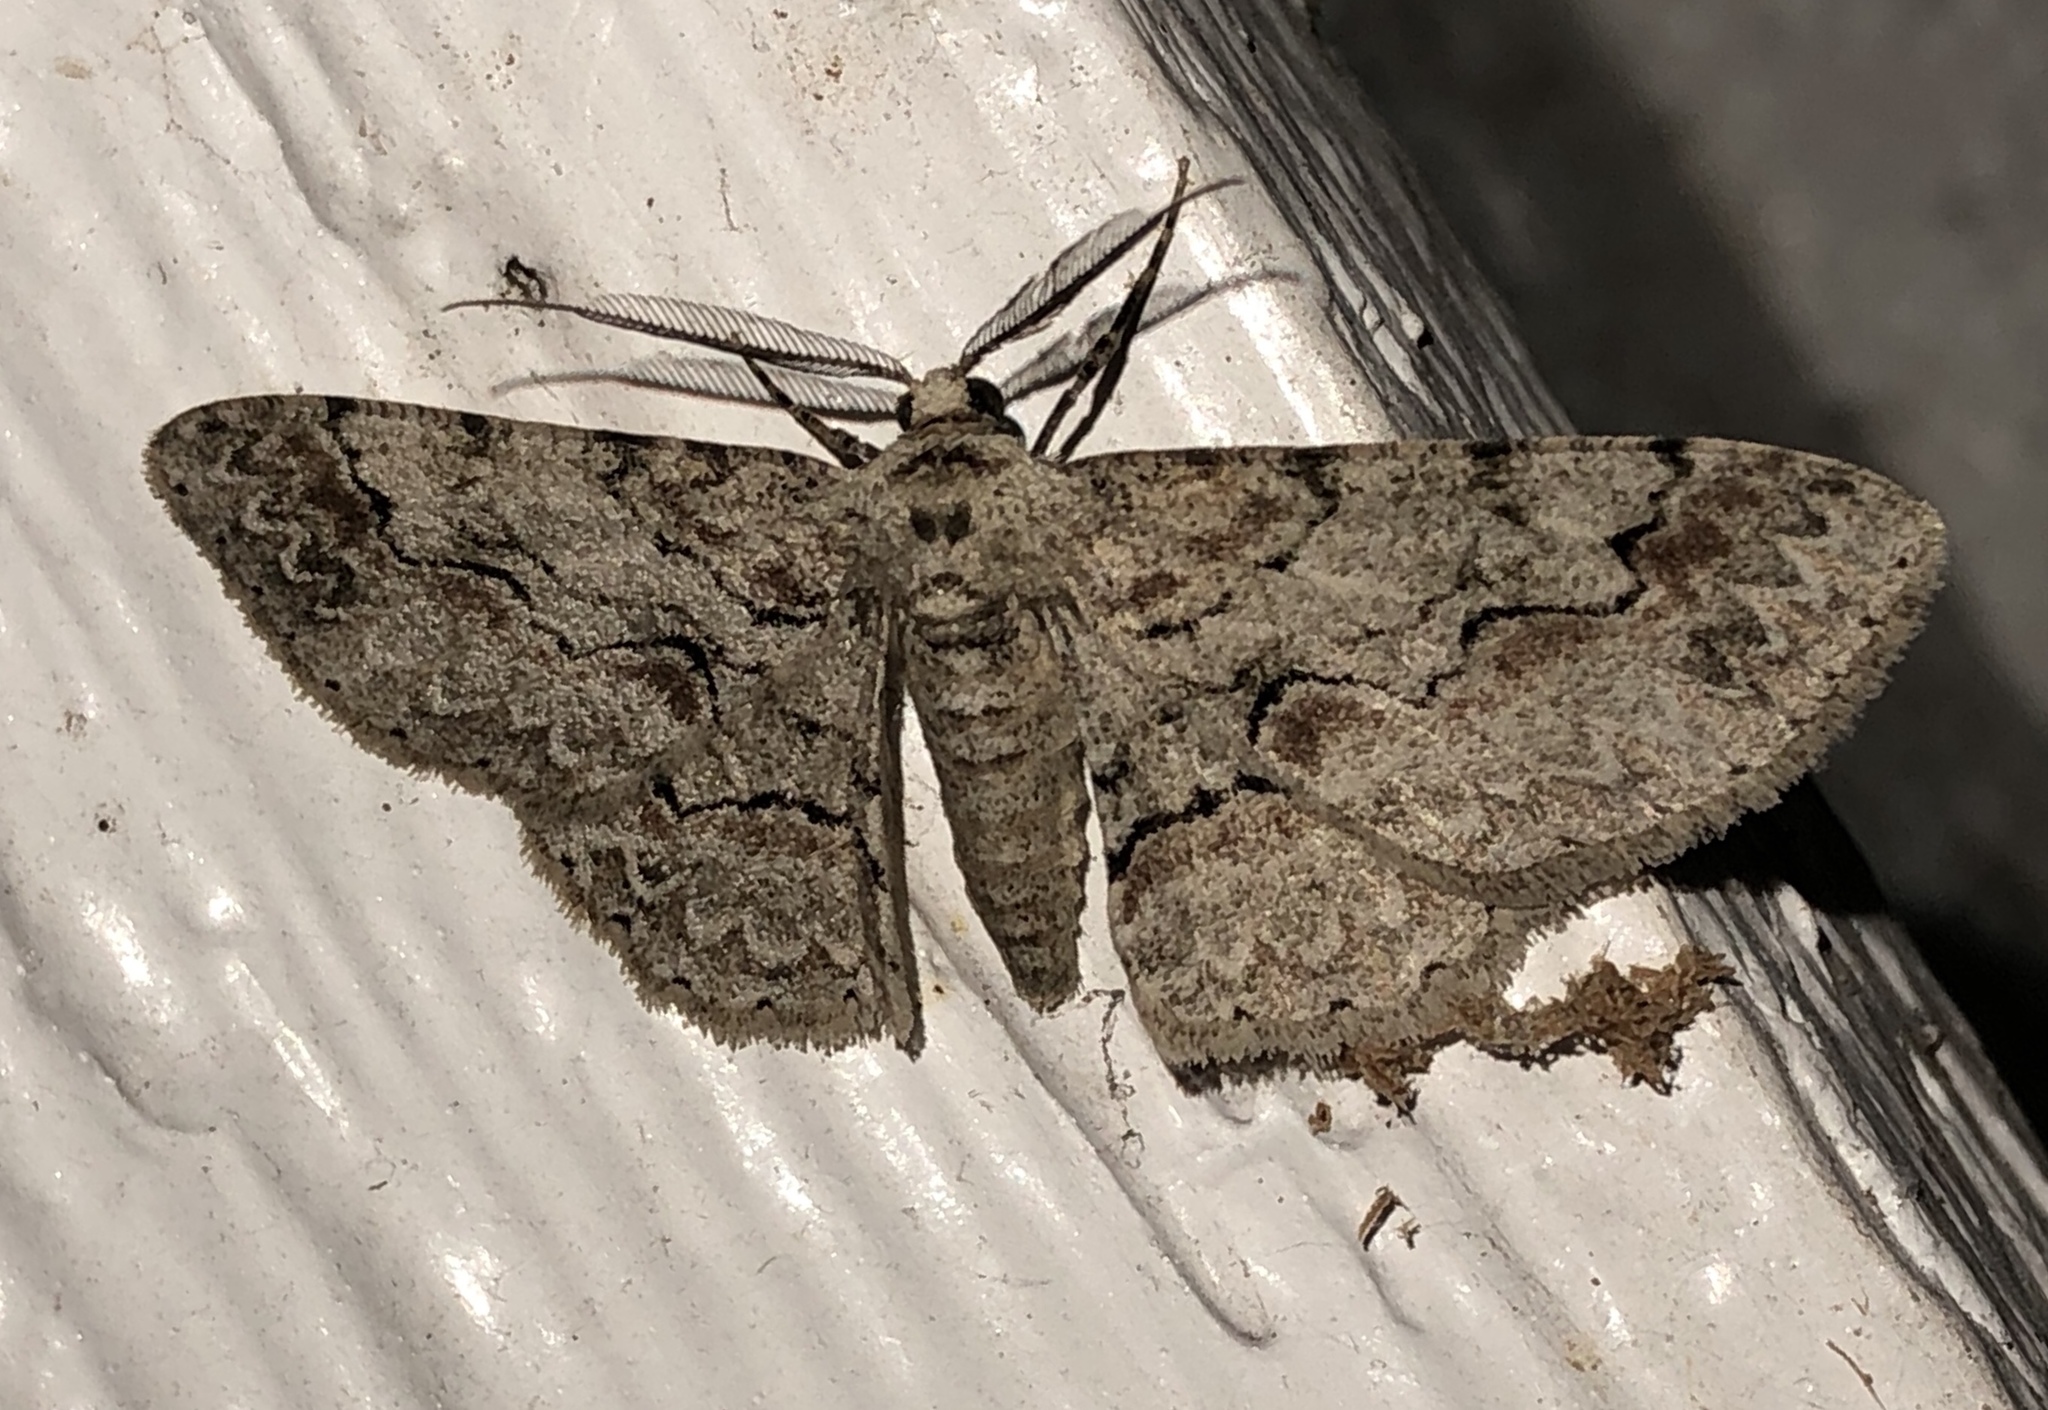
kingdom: Animalia
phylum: Arthropoda
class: Insecta
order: Lepidoptera
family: Geometridae
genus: Iridopsis
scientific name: Iridopsis defectaria
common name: Brown-shaded gray
